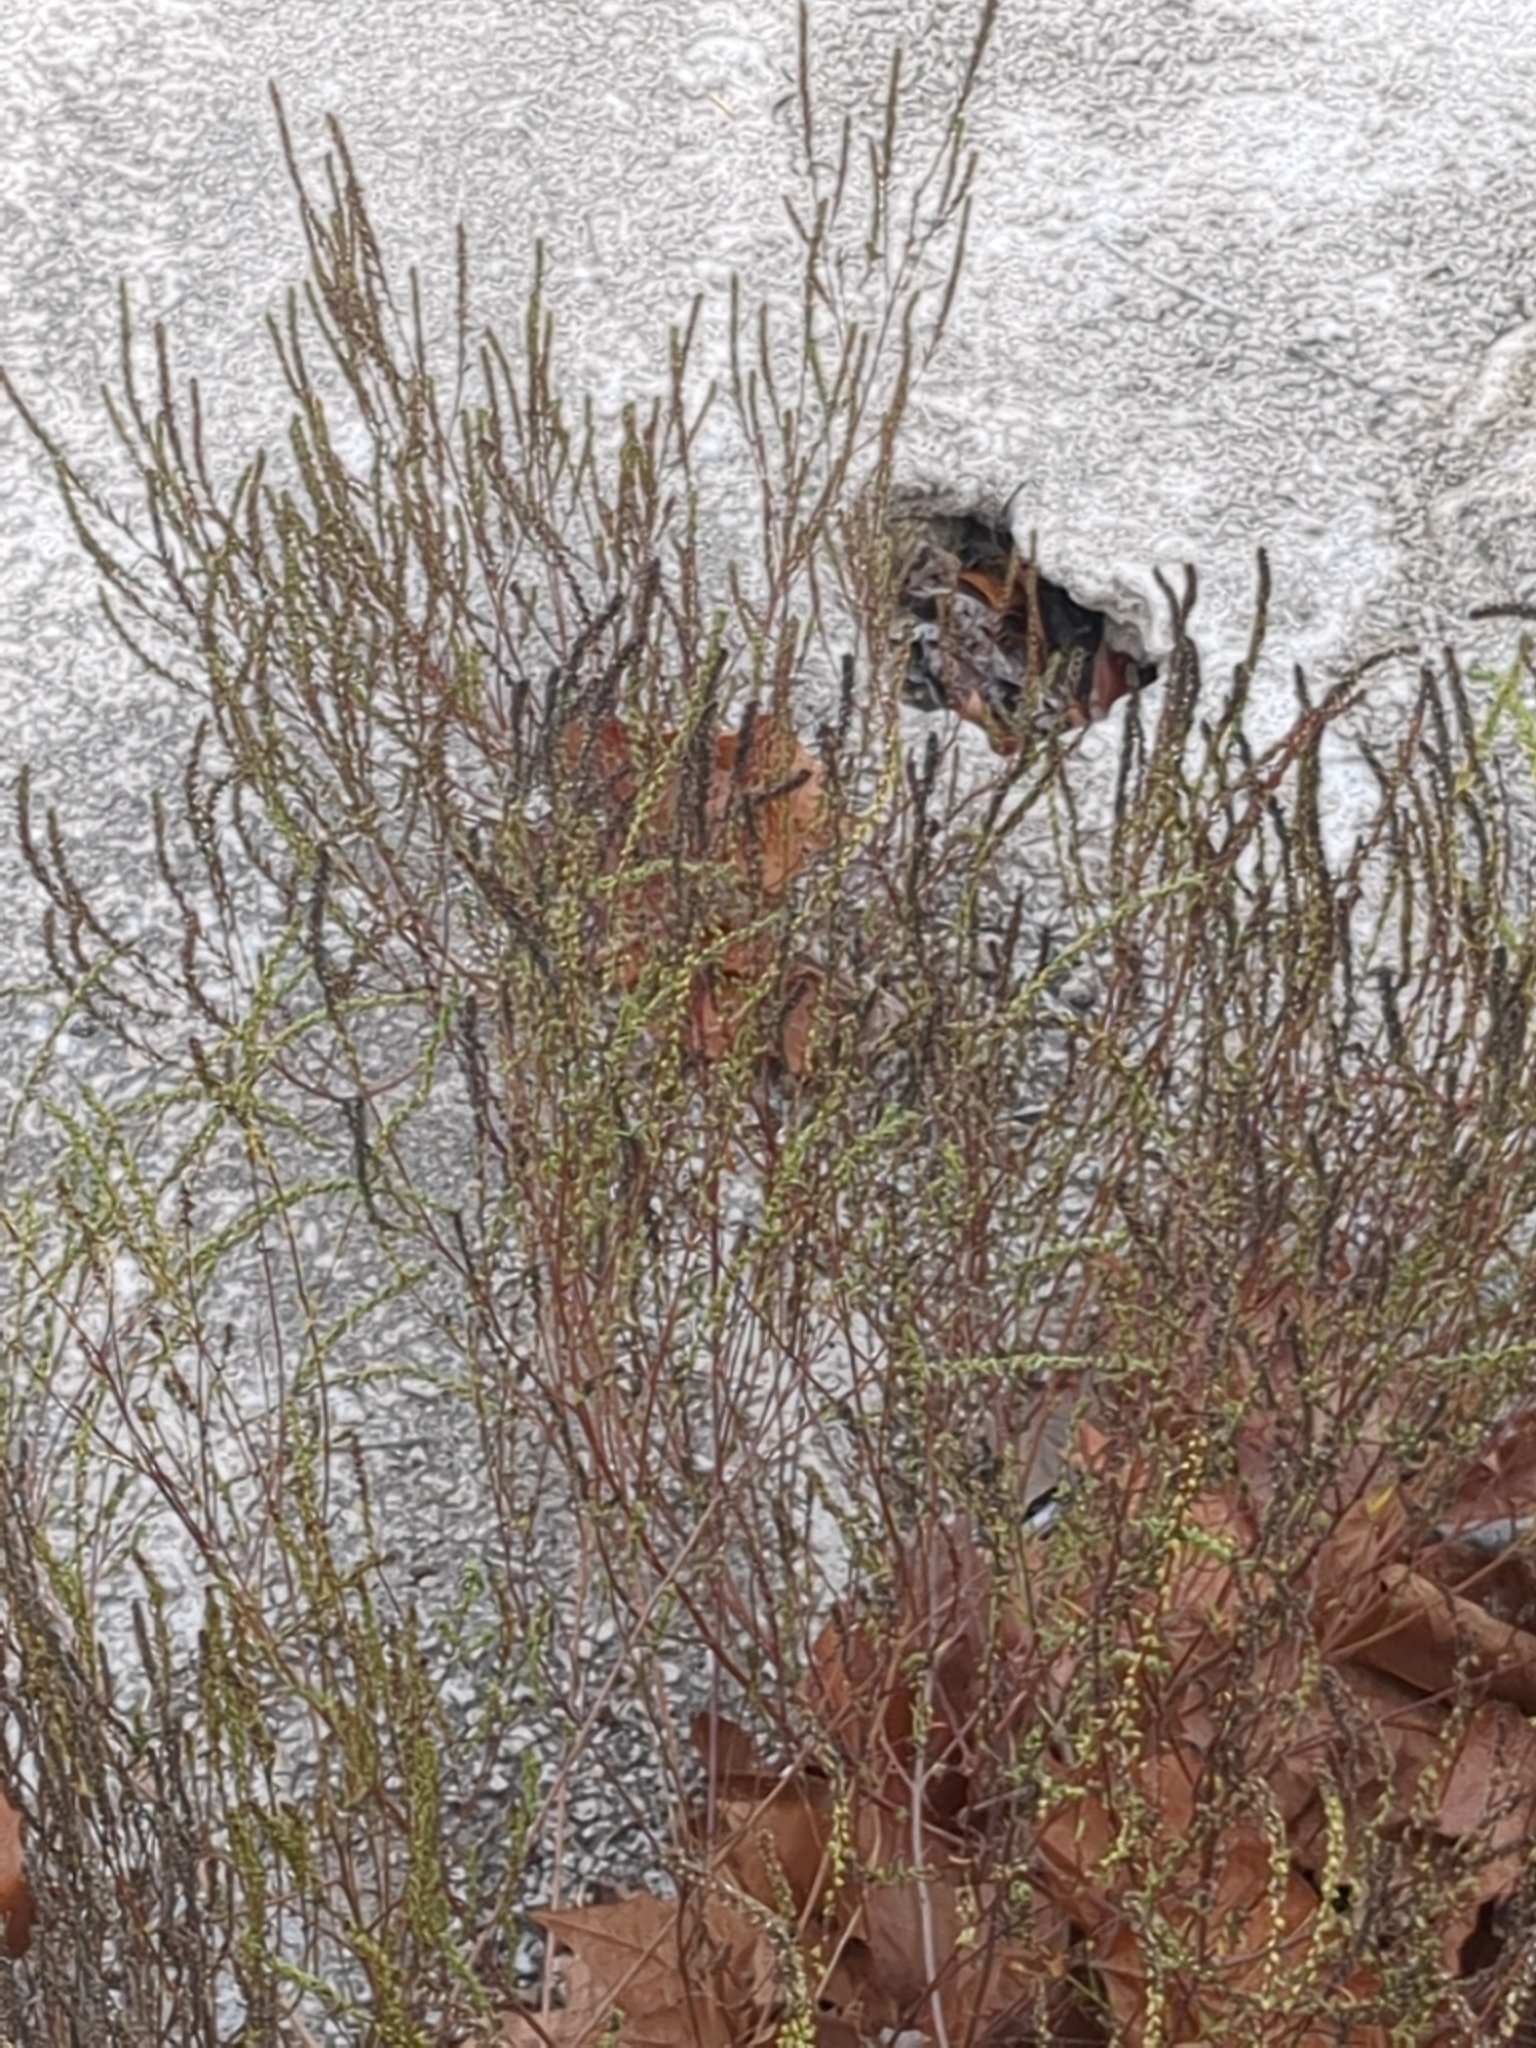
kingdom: Plantae
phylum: Tracheophyta
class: Magnoliopsida
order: Asterales
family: Asteraceae
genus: Iva
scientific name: Iva asperifolia
